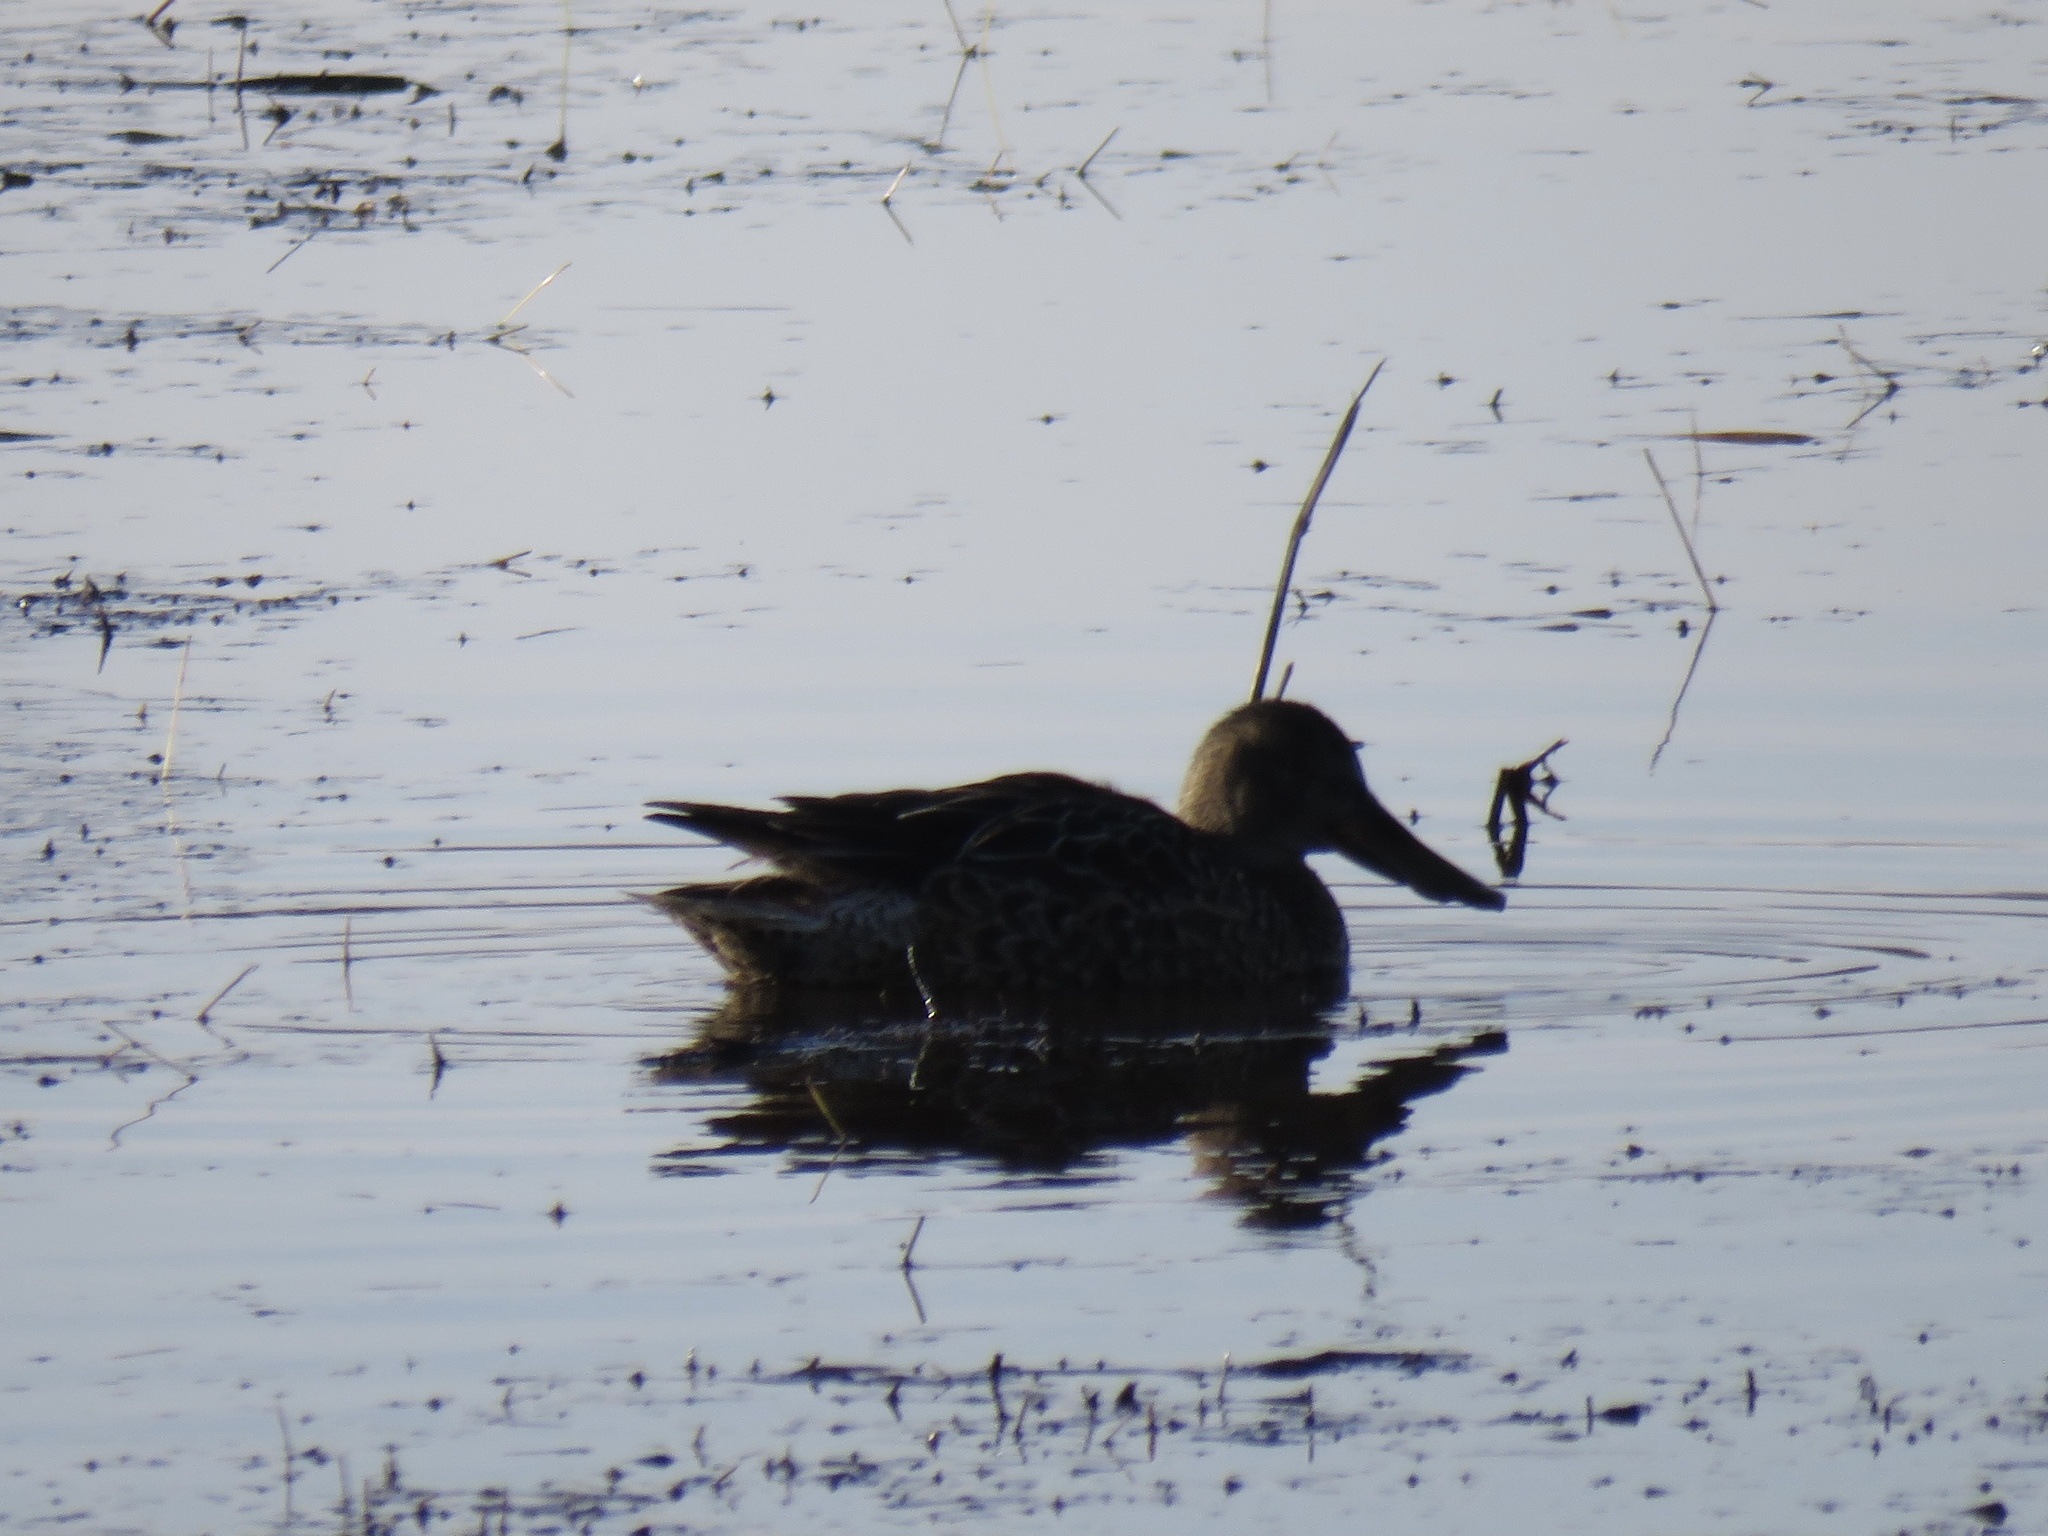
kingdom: Animalia
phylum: Chordata
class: Aves
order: Anseriformes
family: Anatidae
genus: Spatula
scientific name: Spatula clypeata
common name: Northern shoveler
